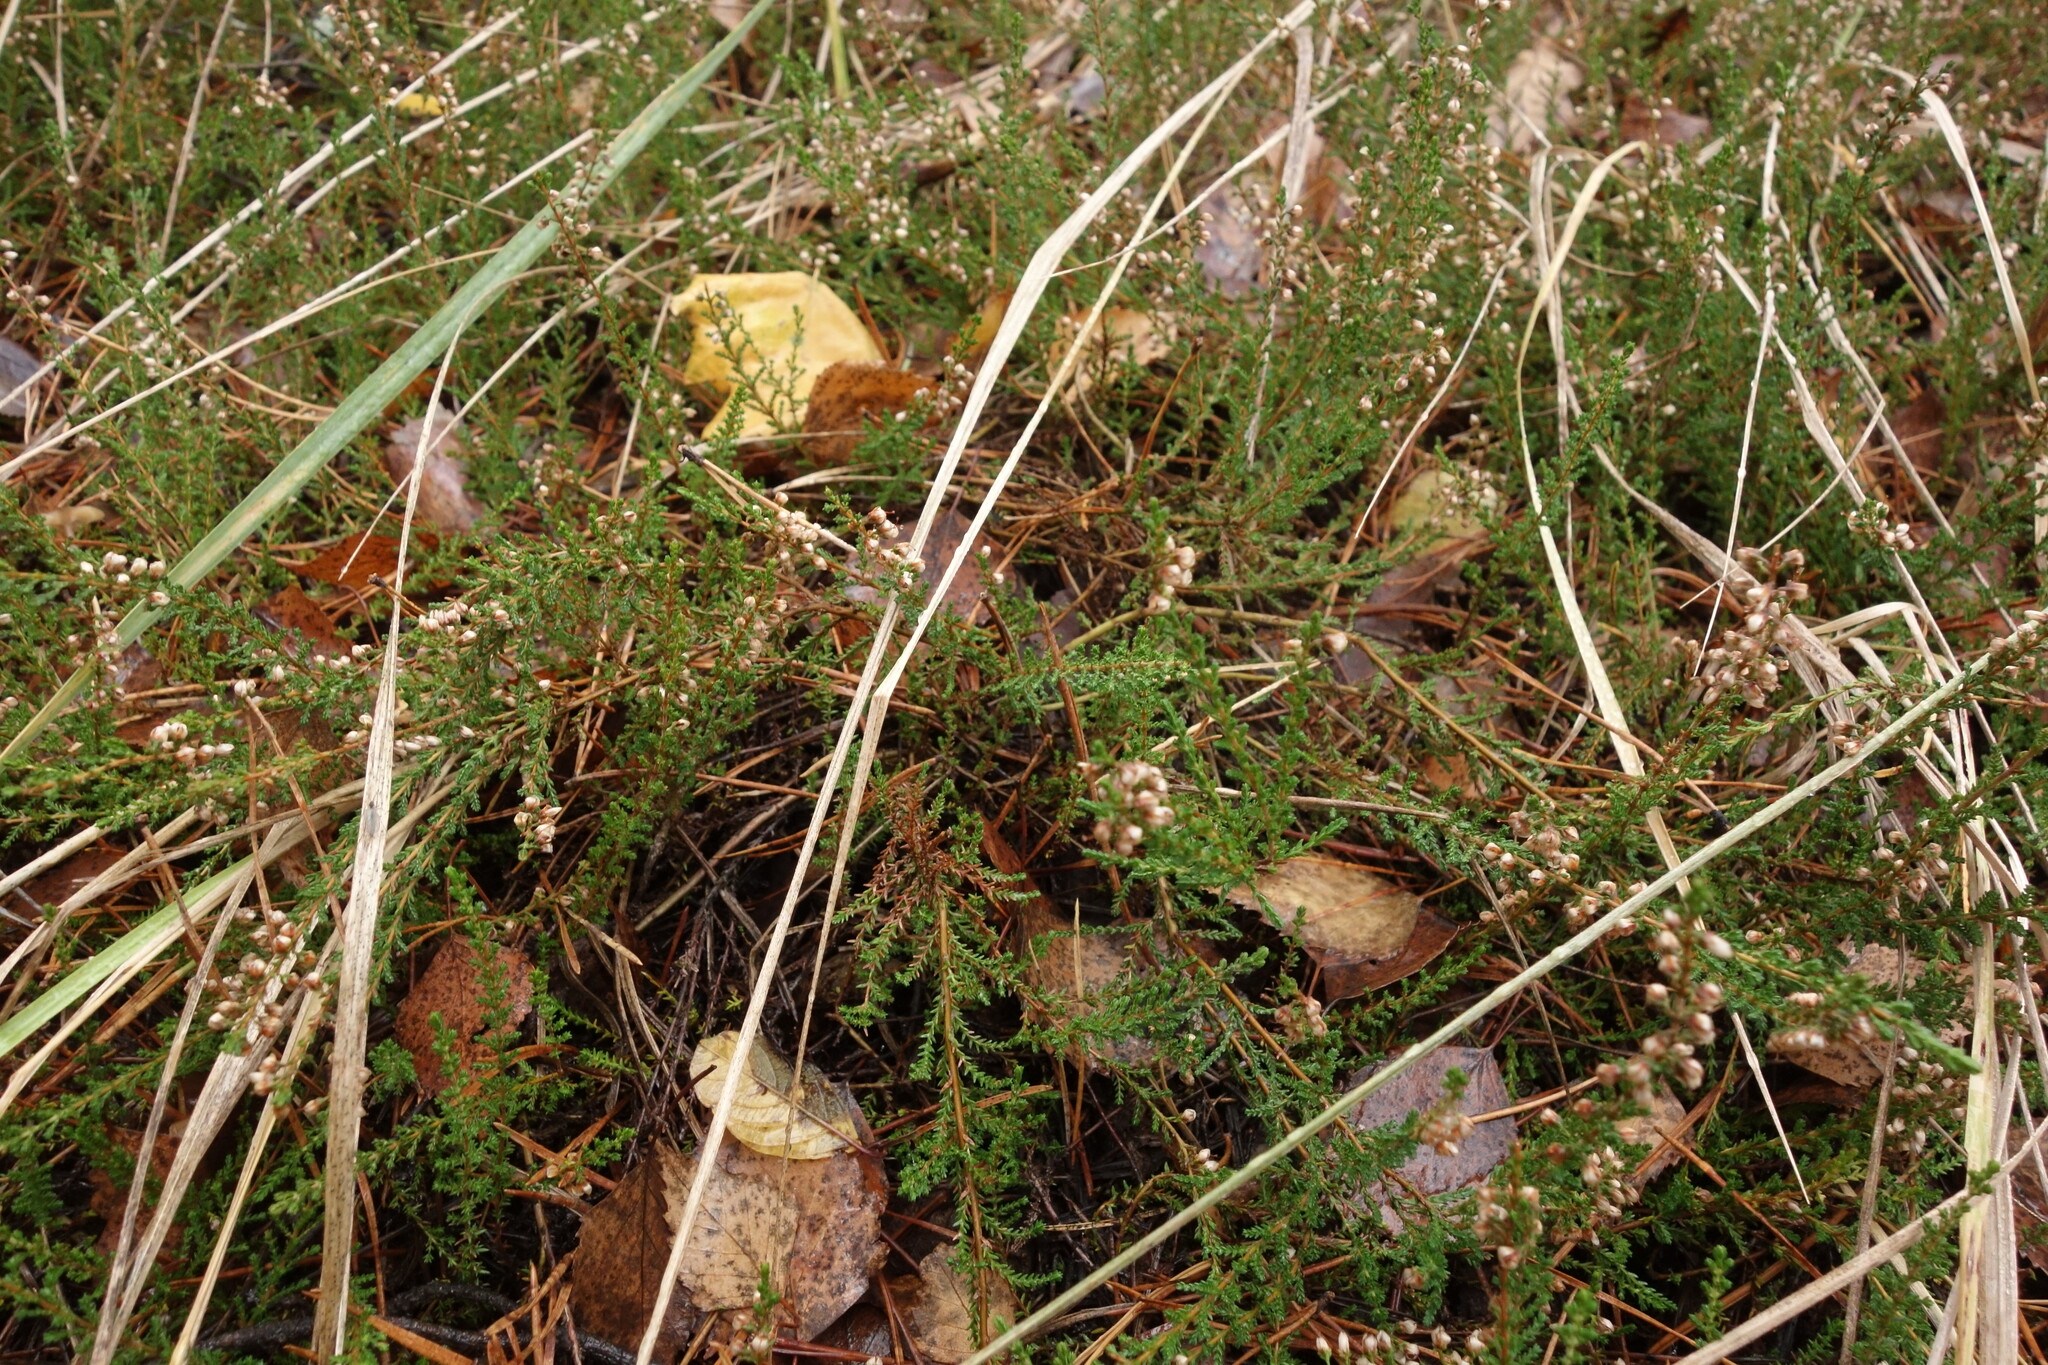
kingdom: Plantae
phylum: Tracheophyta
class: Magnoliopsida
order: Ericales
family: Ericaceae
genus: Calluna
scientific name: Calluna vulgaris
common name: Heather
